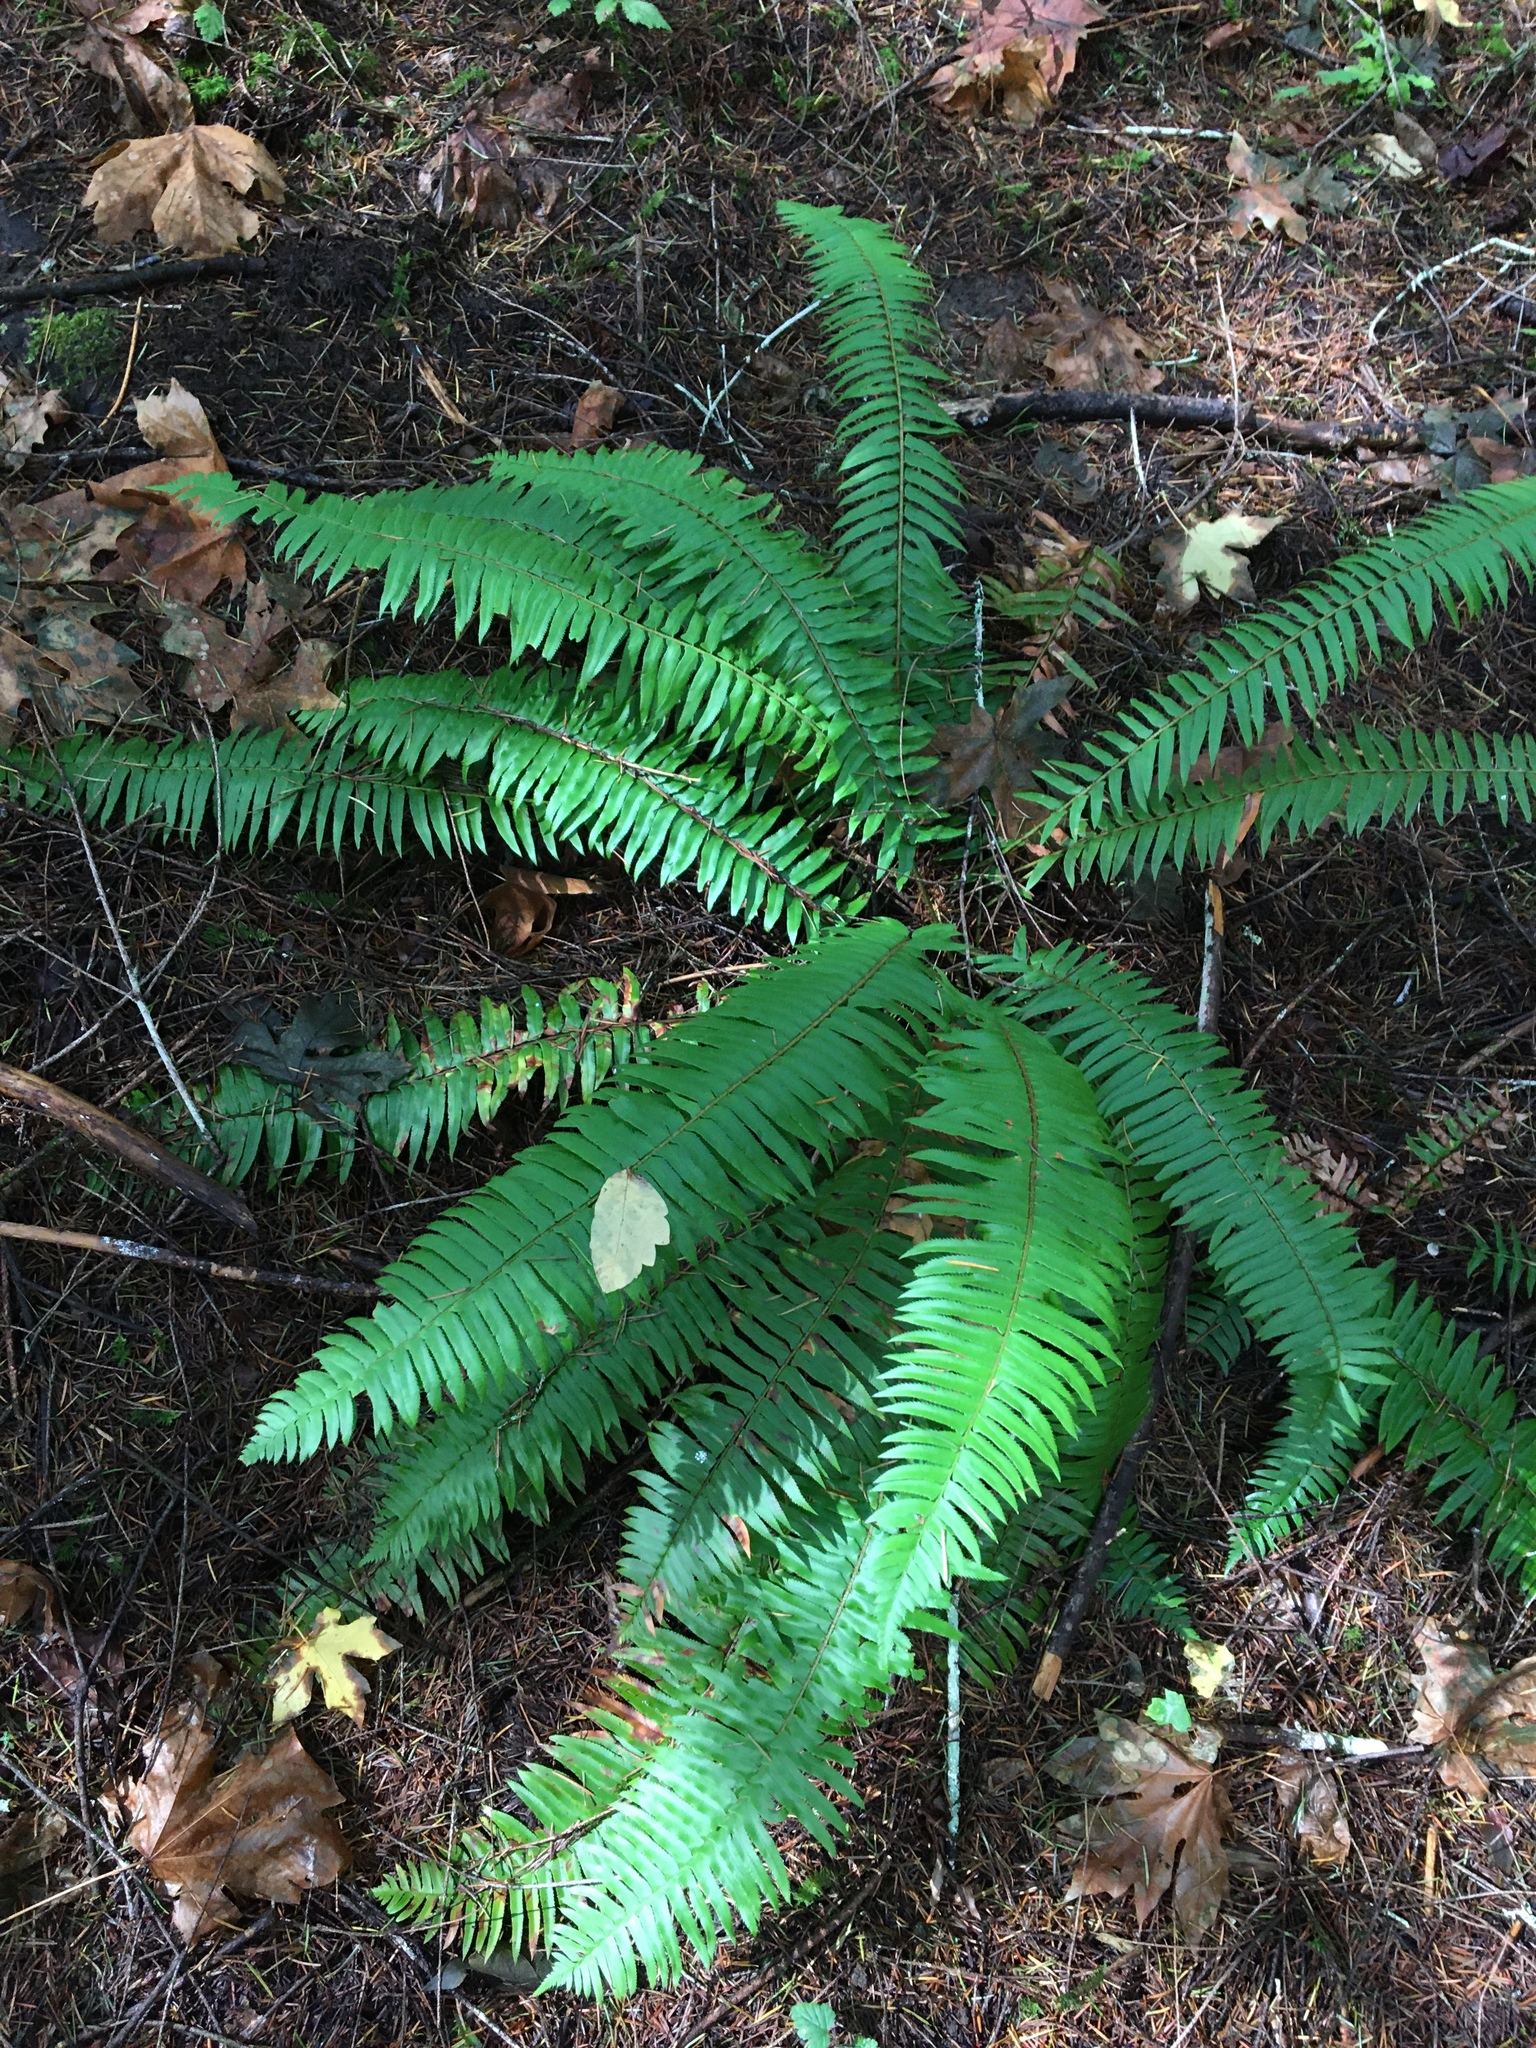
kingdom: Plantae
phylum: Tracheophyta
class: Polypodiopsida
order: Polypodiales
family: Dryopteridaceae
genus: Polystichum
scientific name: Polystichum munitum
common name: Western sword-fern
